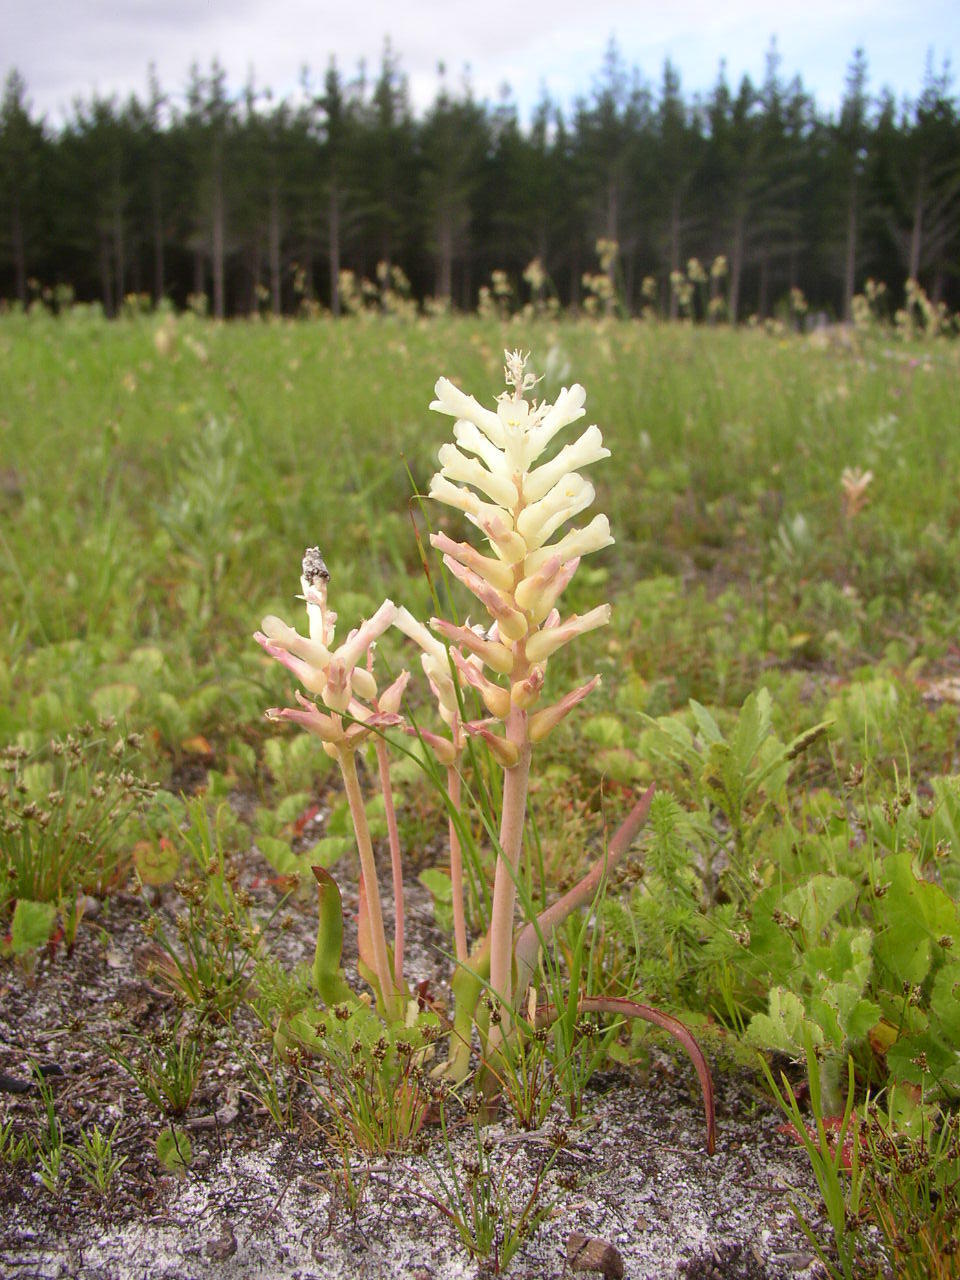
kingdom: Plantae
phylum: Tracheophyta
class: Liliopsida
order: Asparagales
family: Asparagaceae
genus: Lachenalia
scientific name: Lachenalia orchioides
